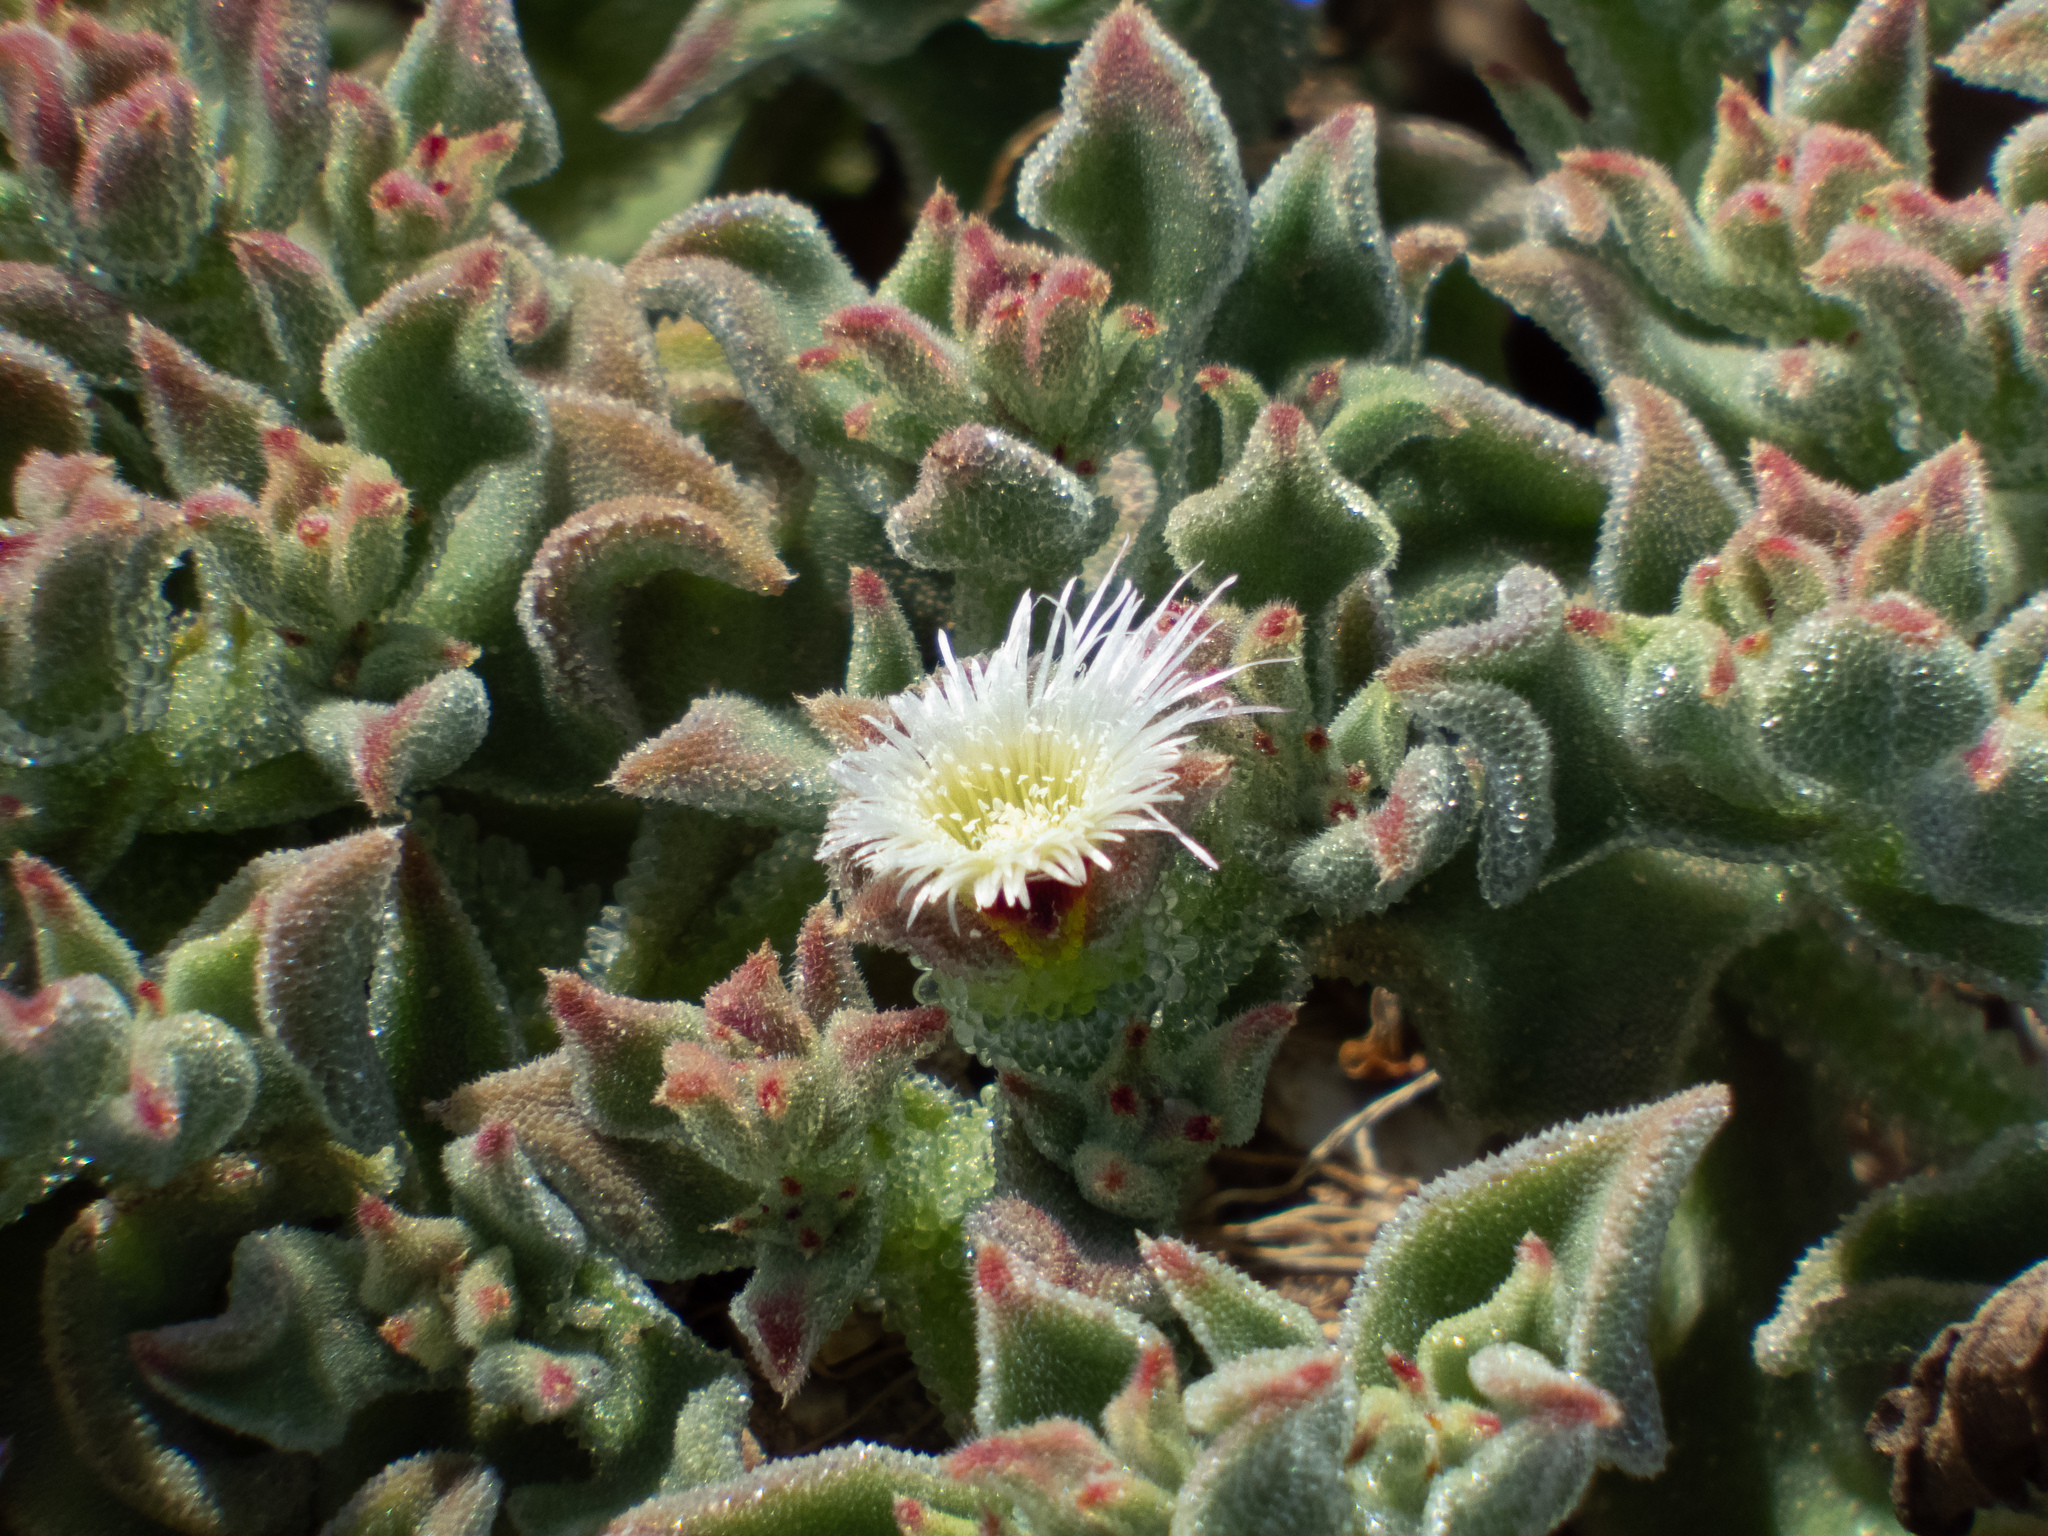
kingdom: Plantae
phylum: Tracheophyta
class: Magnoliopsida
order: Caryophyllales
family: Aizoaceae
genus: Mesembryanthemum
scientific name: Mesembryanthemum crystallinum
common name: Common iceplant
